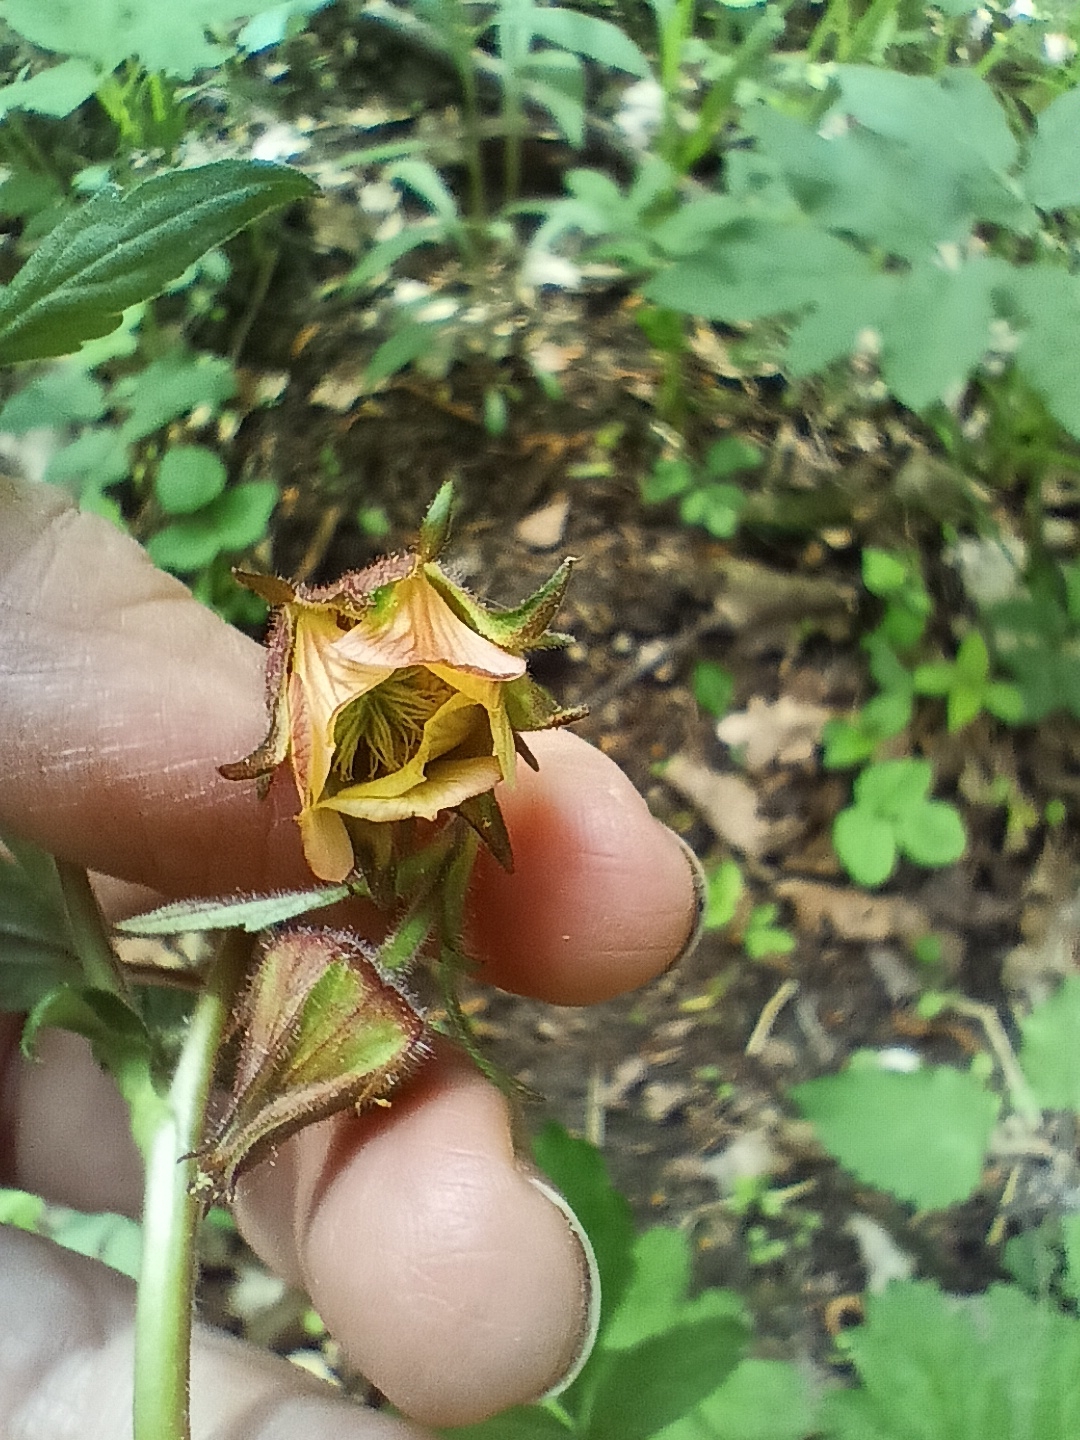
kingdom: Plantae
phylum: Tracheophyta
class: Magnoliopsida
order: Rosales
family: Rosaceae
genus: Geum
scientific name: Geum rivale
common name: Water avens
